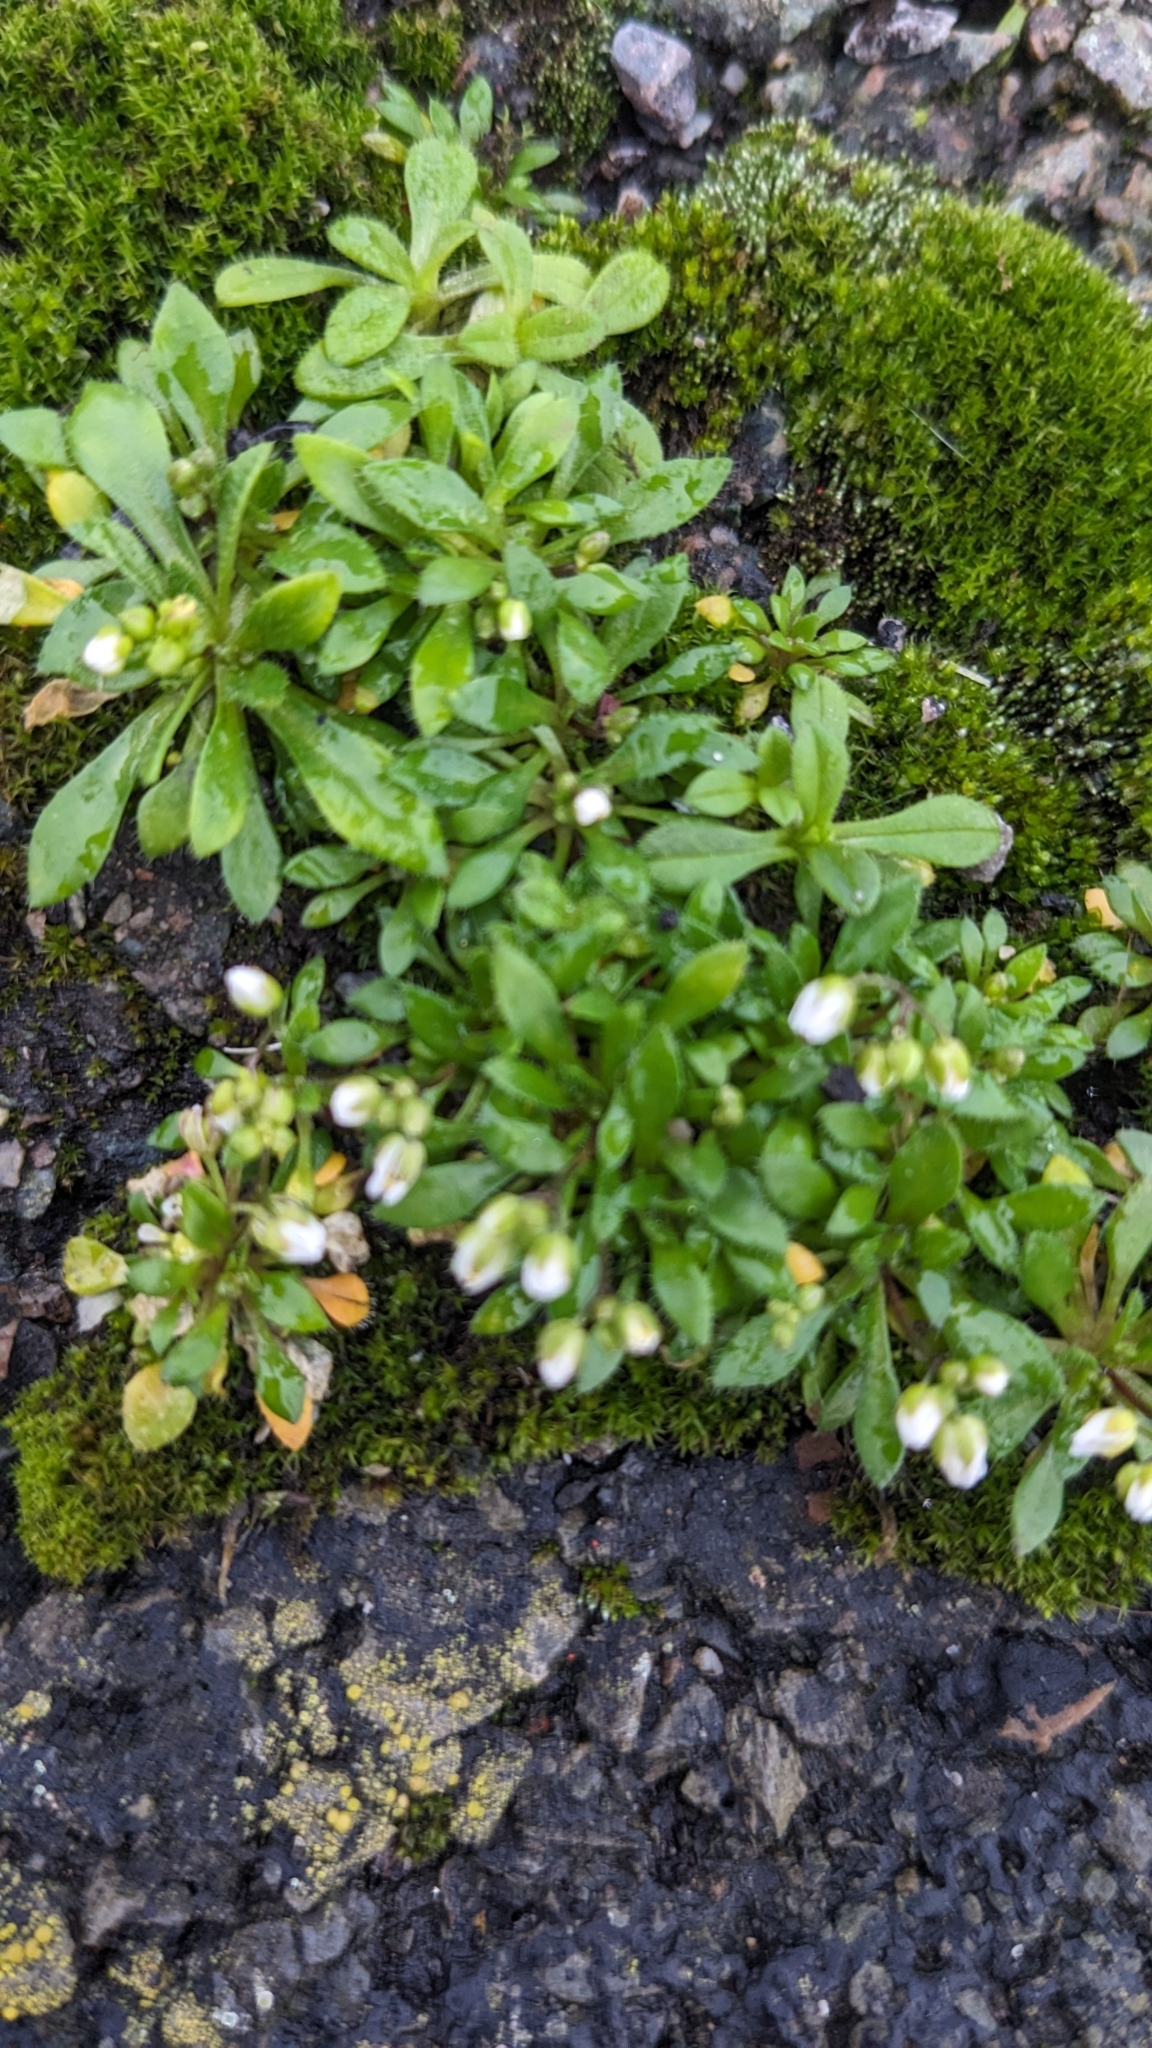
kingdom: Plantae
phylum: Tracheophyta
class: Magnoliopsida
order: Brassicales
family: Brassicaceae
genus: Draba
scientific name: Draba verna
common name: Spring draba
